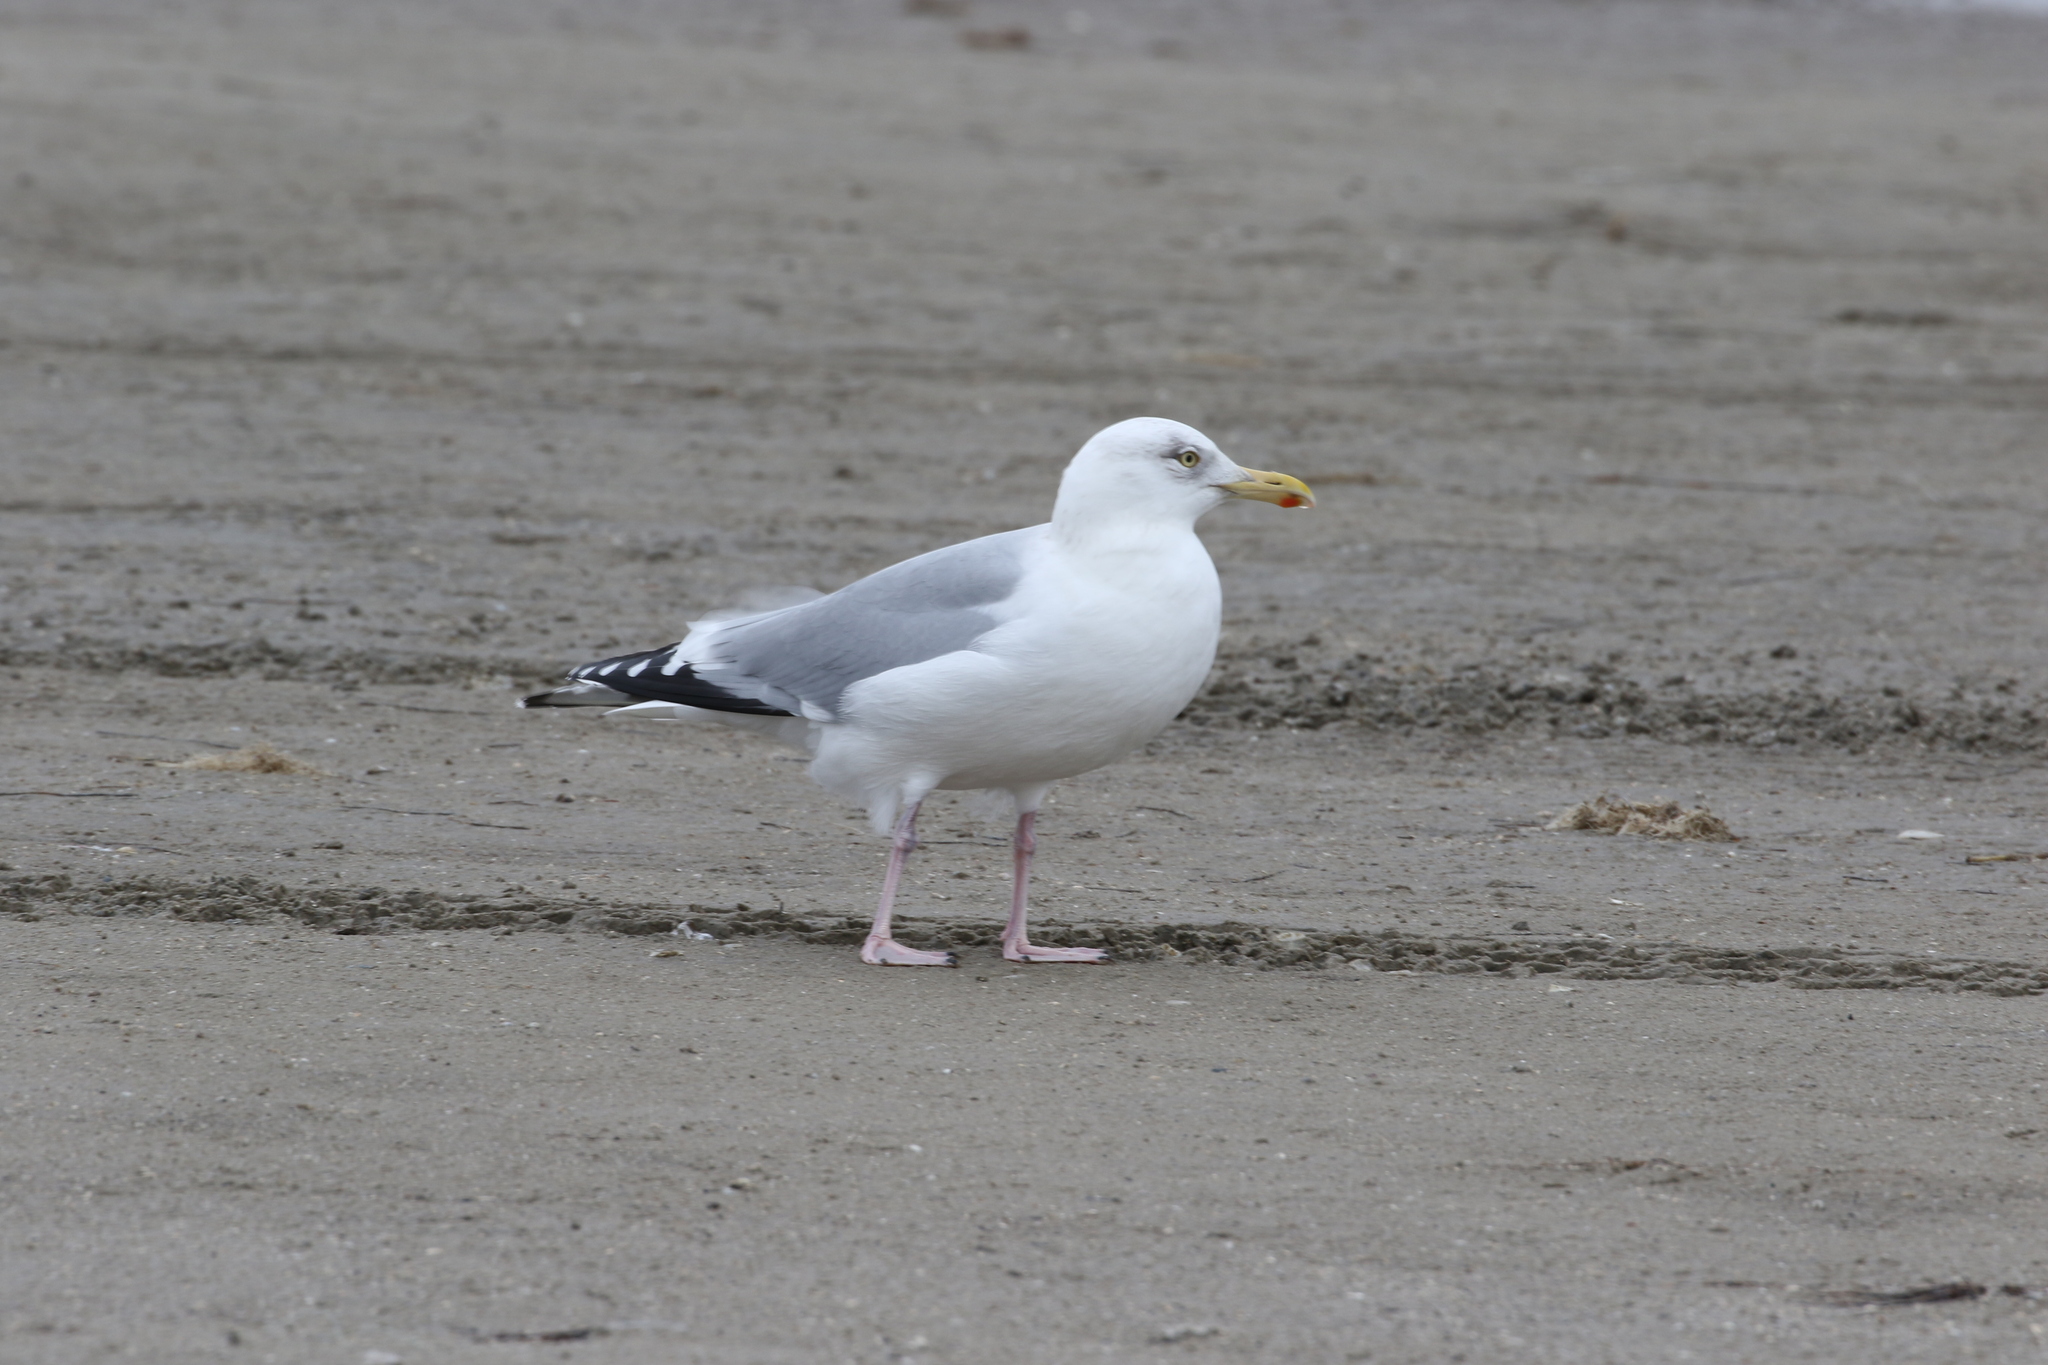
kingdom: Animalia
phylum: Chordata
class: Aves
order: Charadriiformes
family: Laridae
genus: Larus
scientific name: Larus argentatus
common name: Herring gull
